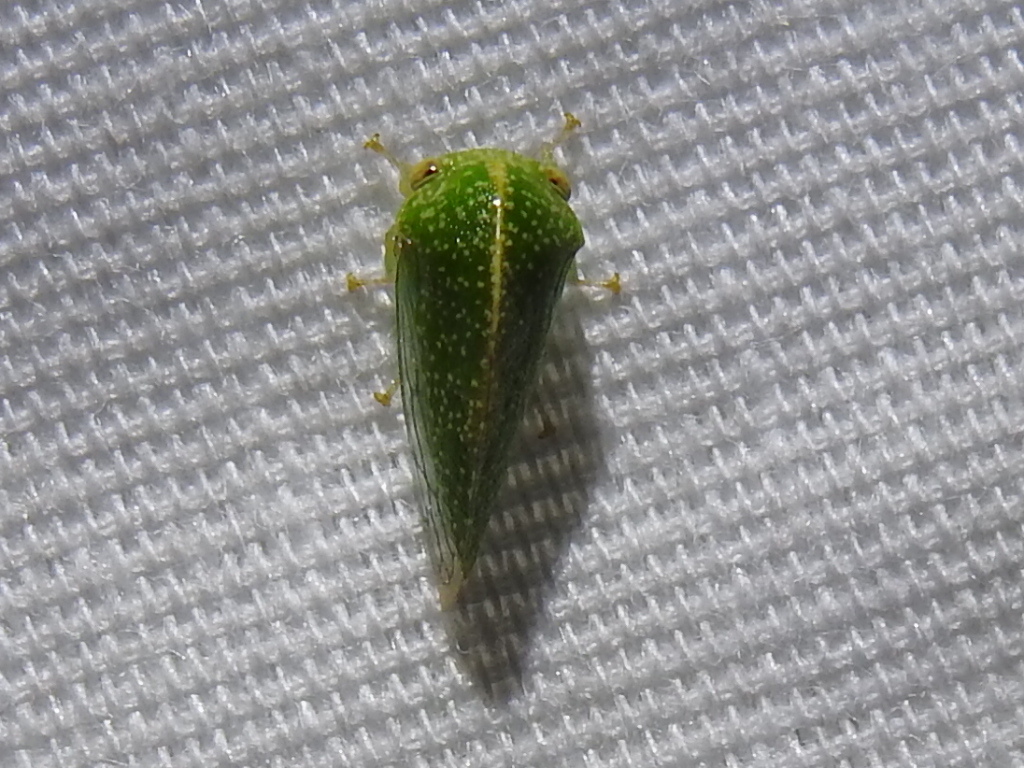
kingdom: Animalia
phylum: Arthropoda
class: Insecta
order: Hemiptera
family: Membracidae
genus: Cyrtolobus
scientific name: Cyrtolobus dixianus
